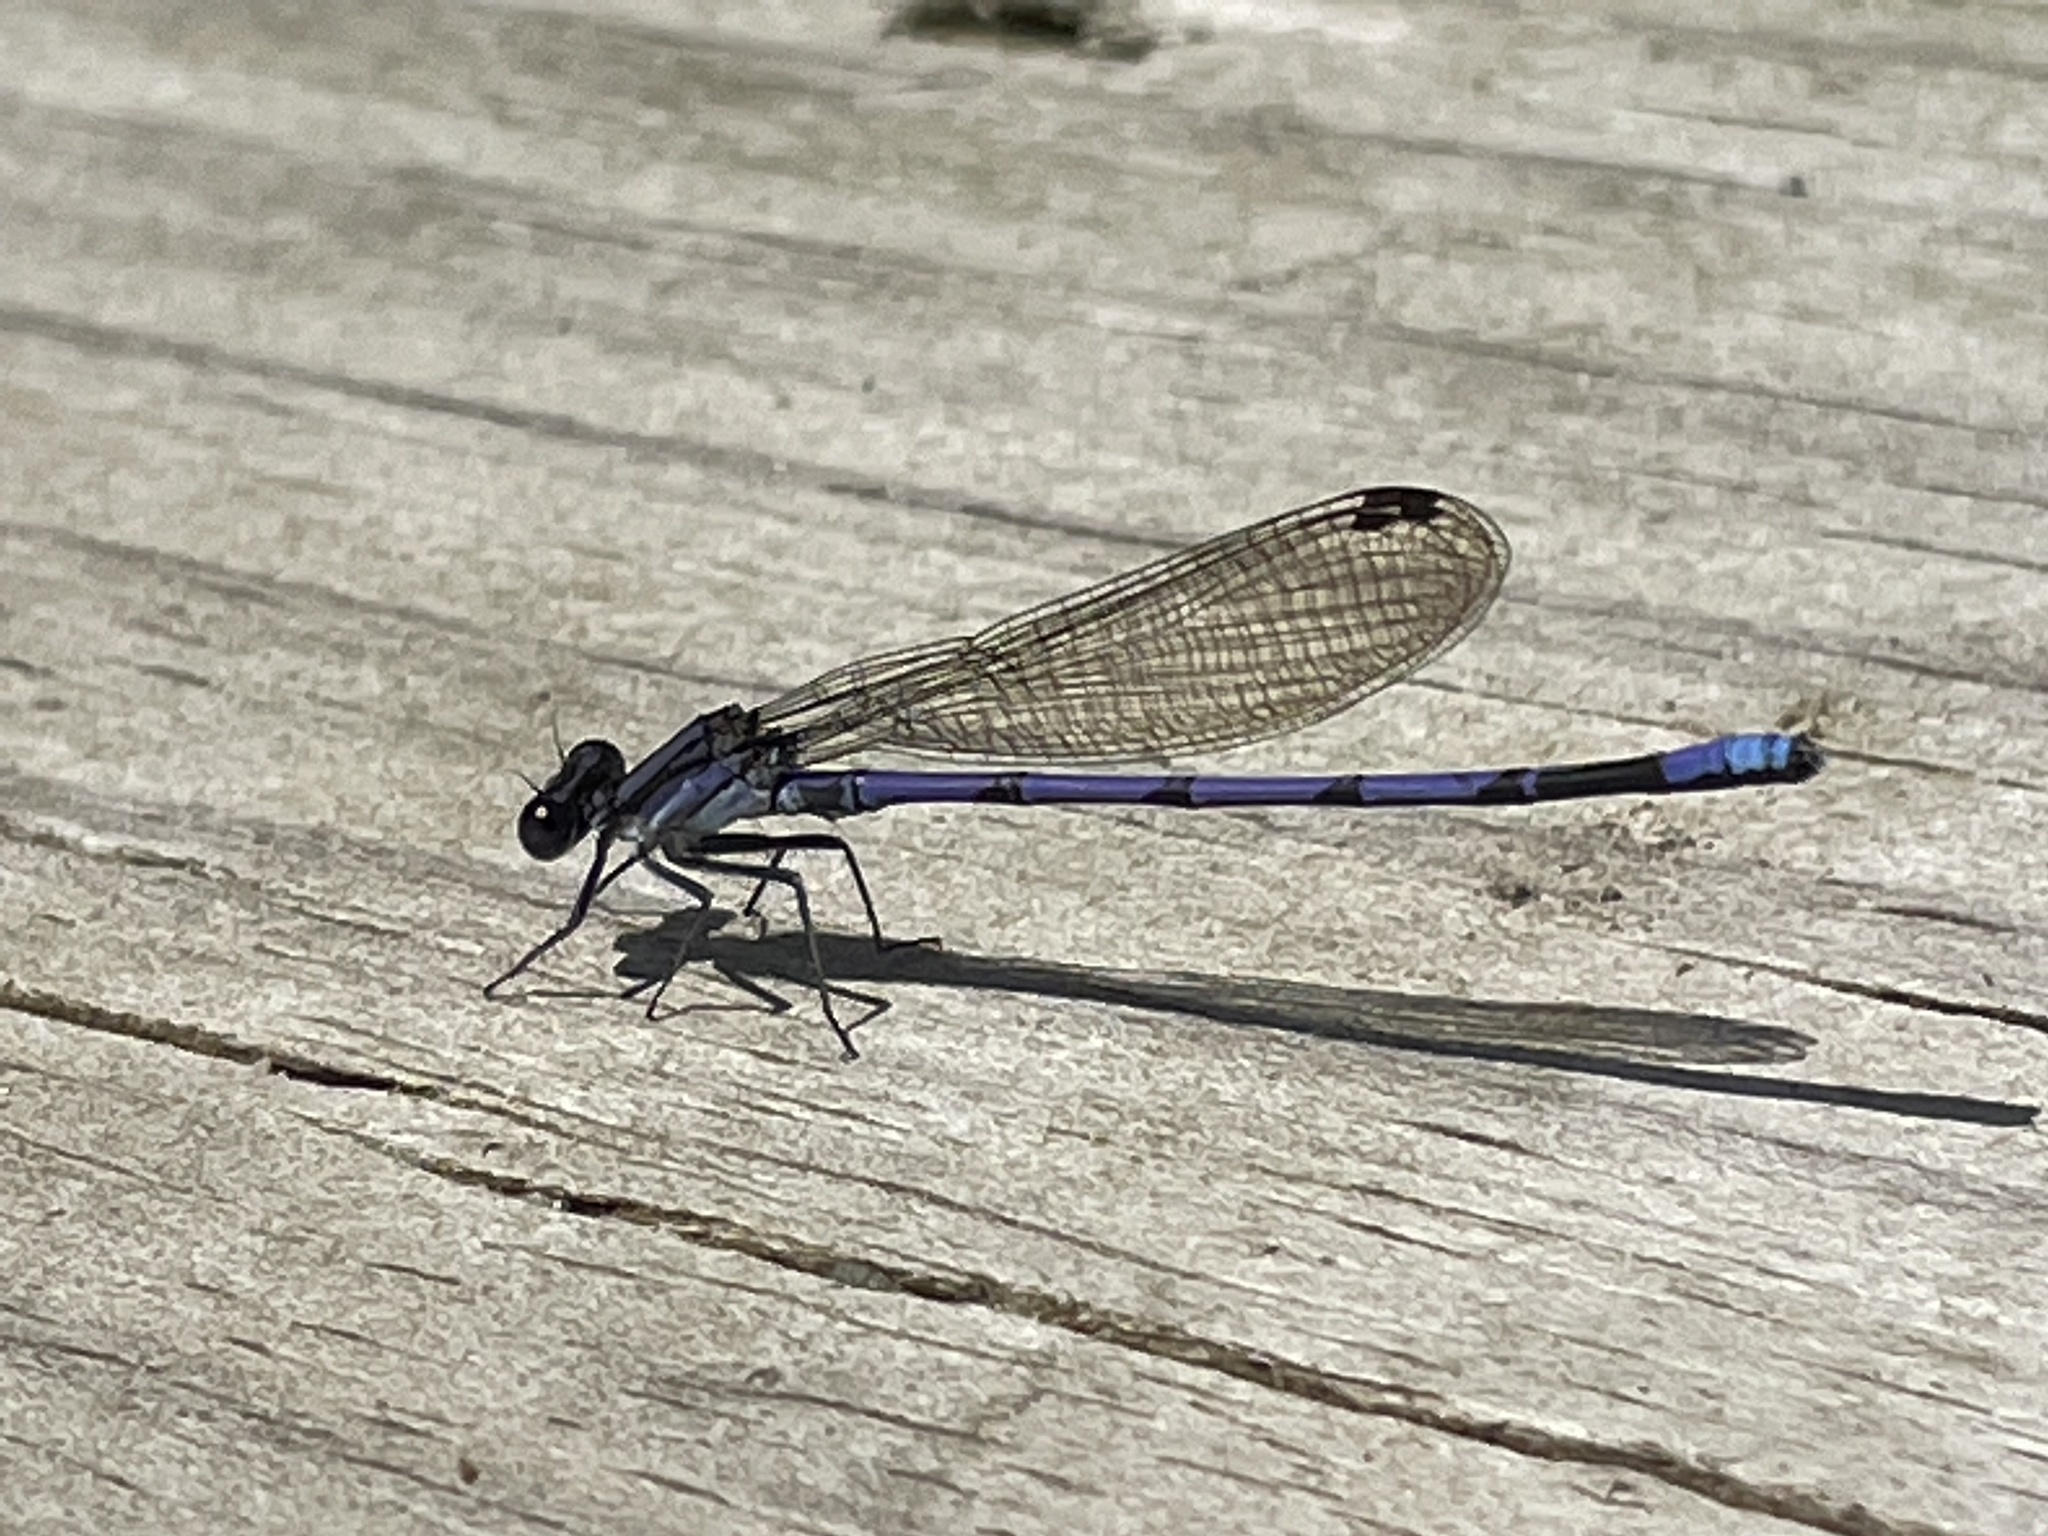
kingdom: Animalia
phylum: Arthropoda
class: Insecta
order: Odonata
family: Coenagrionidae
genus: Argia
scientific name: Argia fumipennis
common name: Variable dancer
